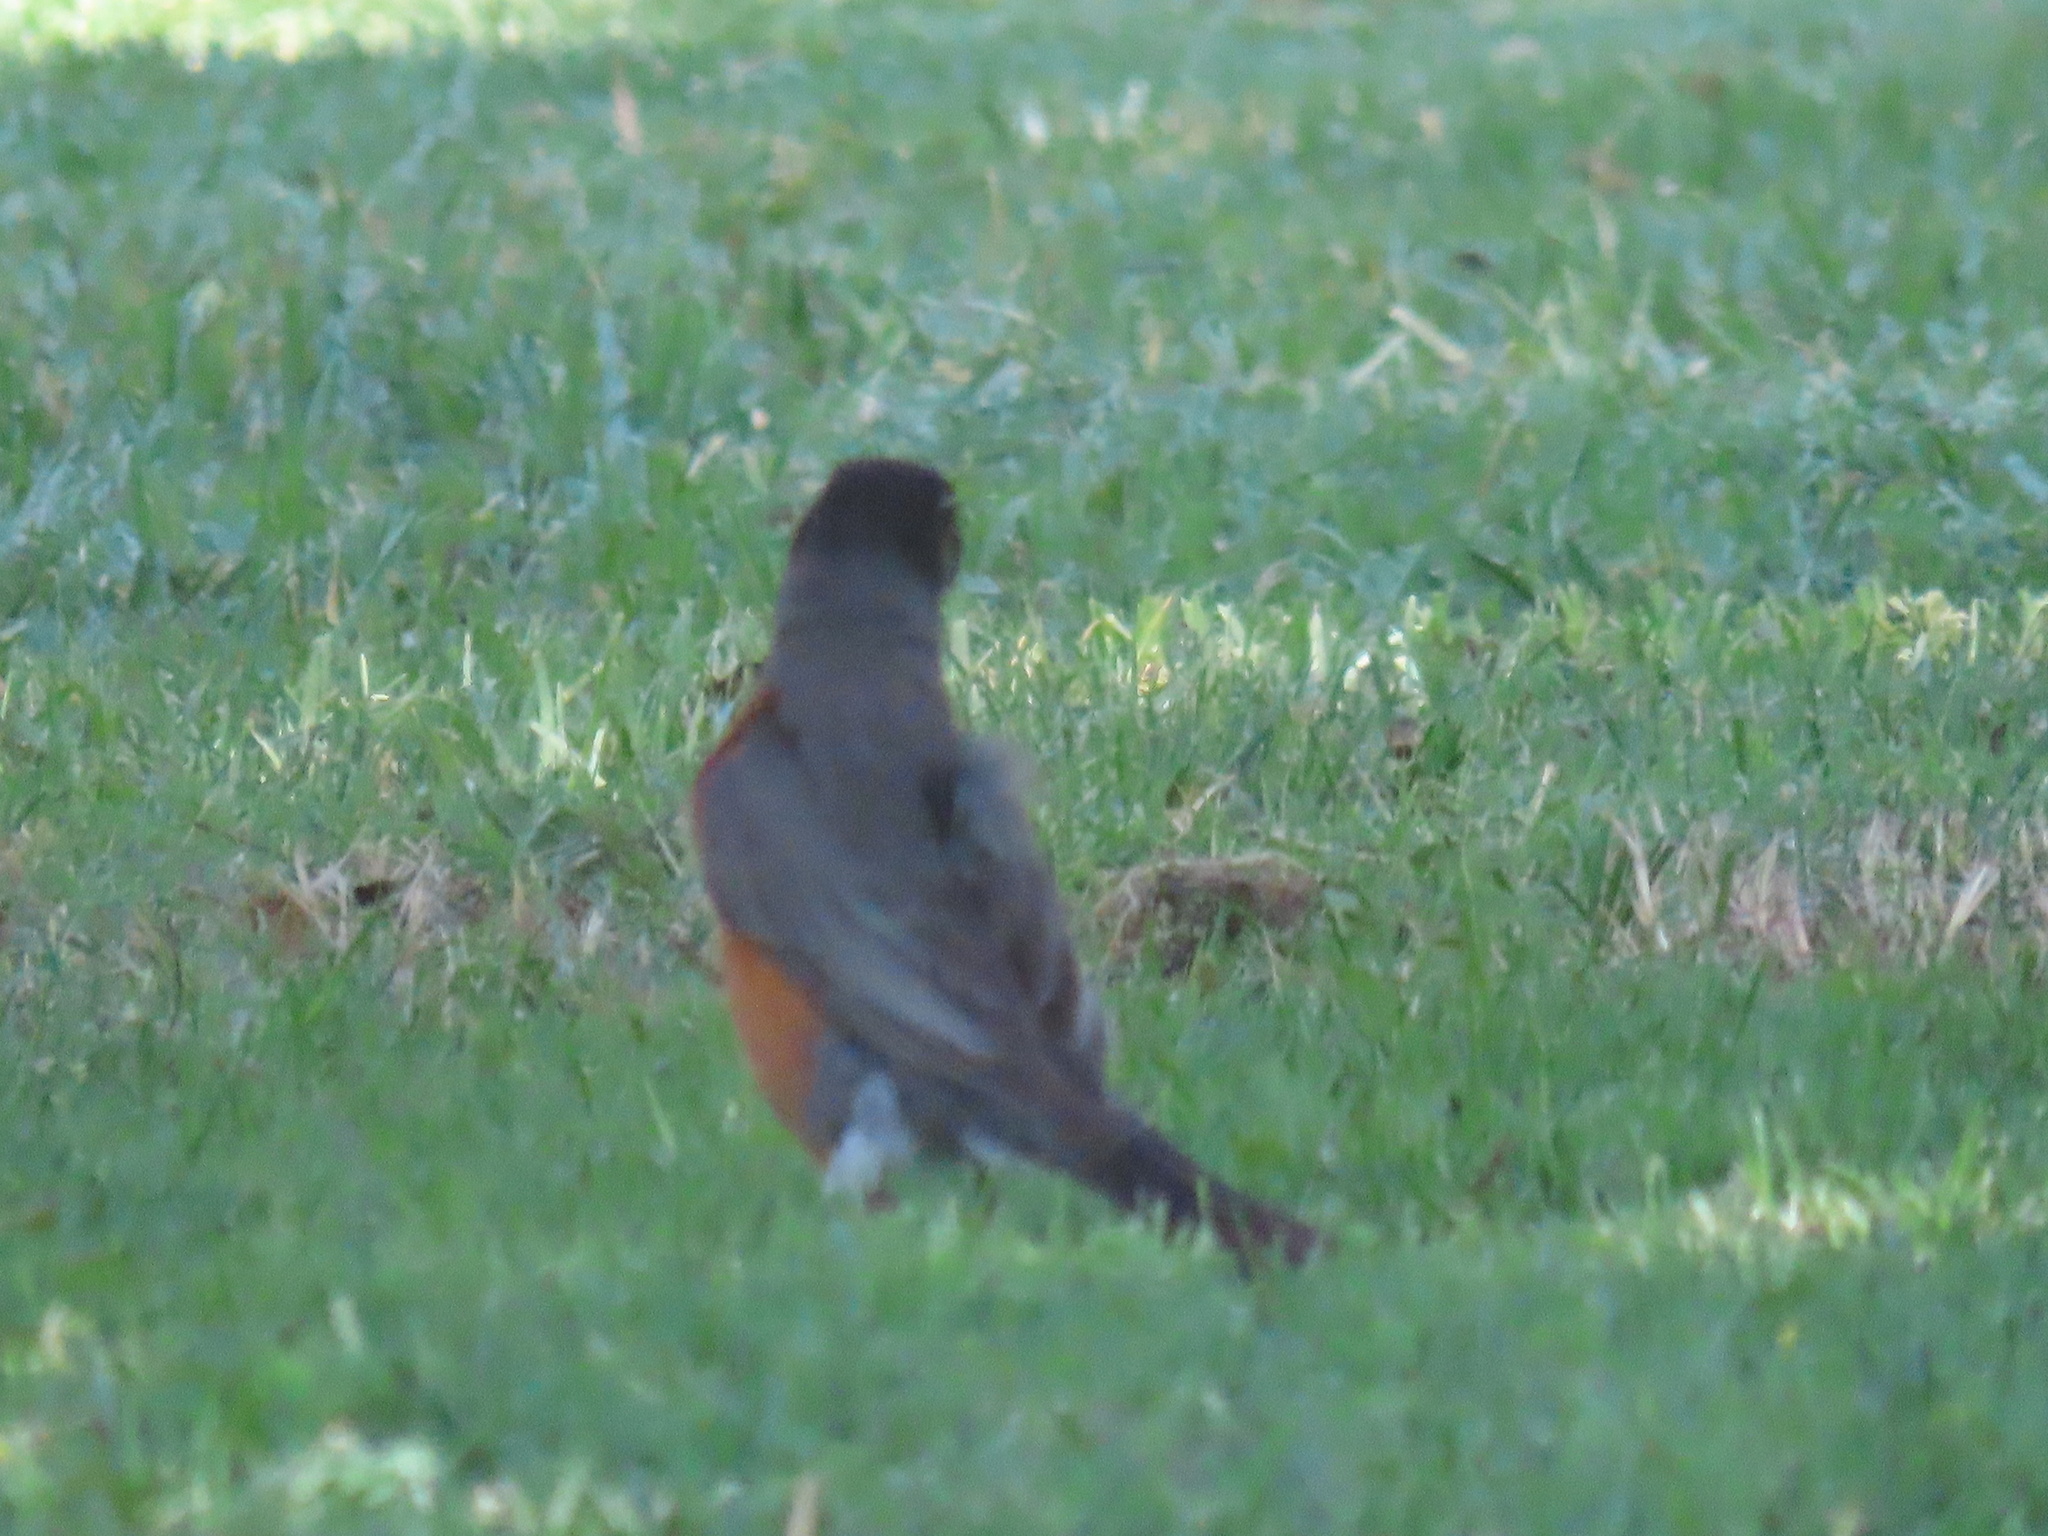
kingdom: Animalia
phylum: Chordata
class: Aves
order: Passeriformes
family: Turdidae
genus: Turdus
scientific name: Turdus migratorius
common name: American robin
